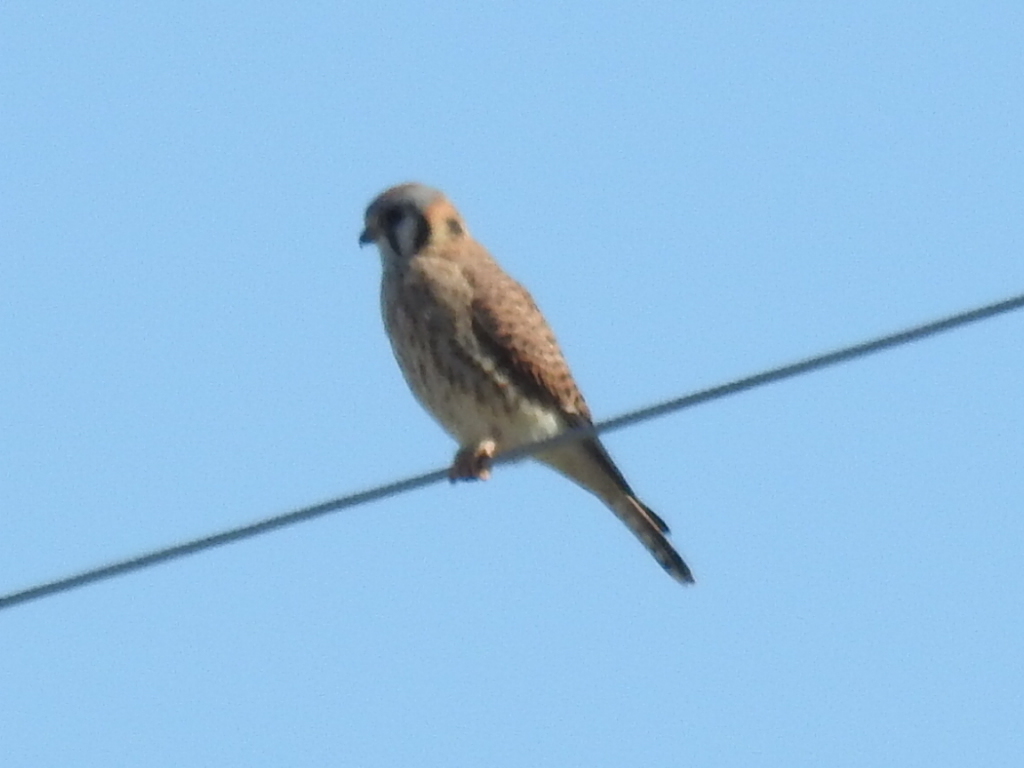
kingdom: Animalia
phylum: Chordata
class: Aves
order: Falconiformes
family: Falconidae
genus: Falco
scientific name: Falco sparverius
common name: American kestrel
